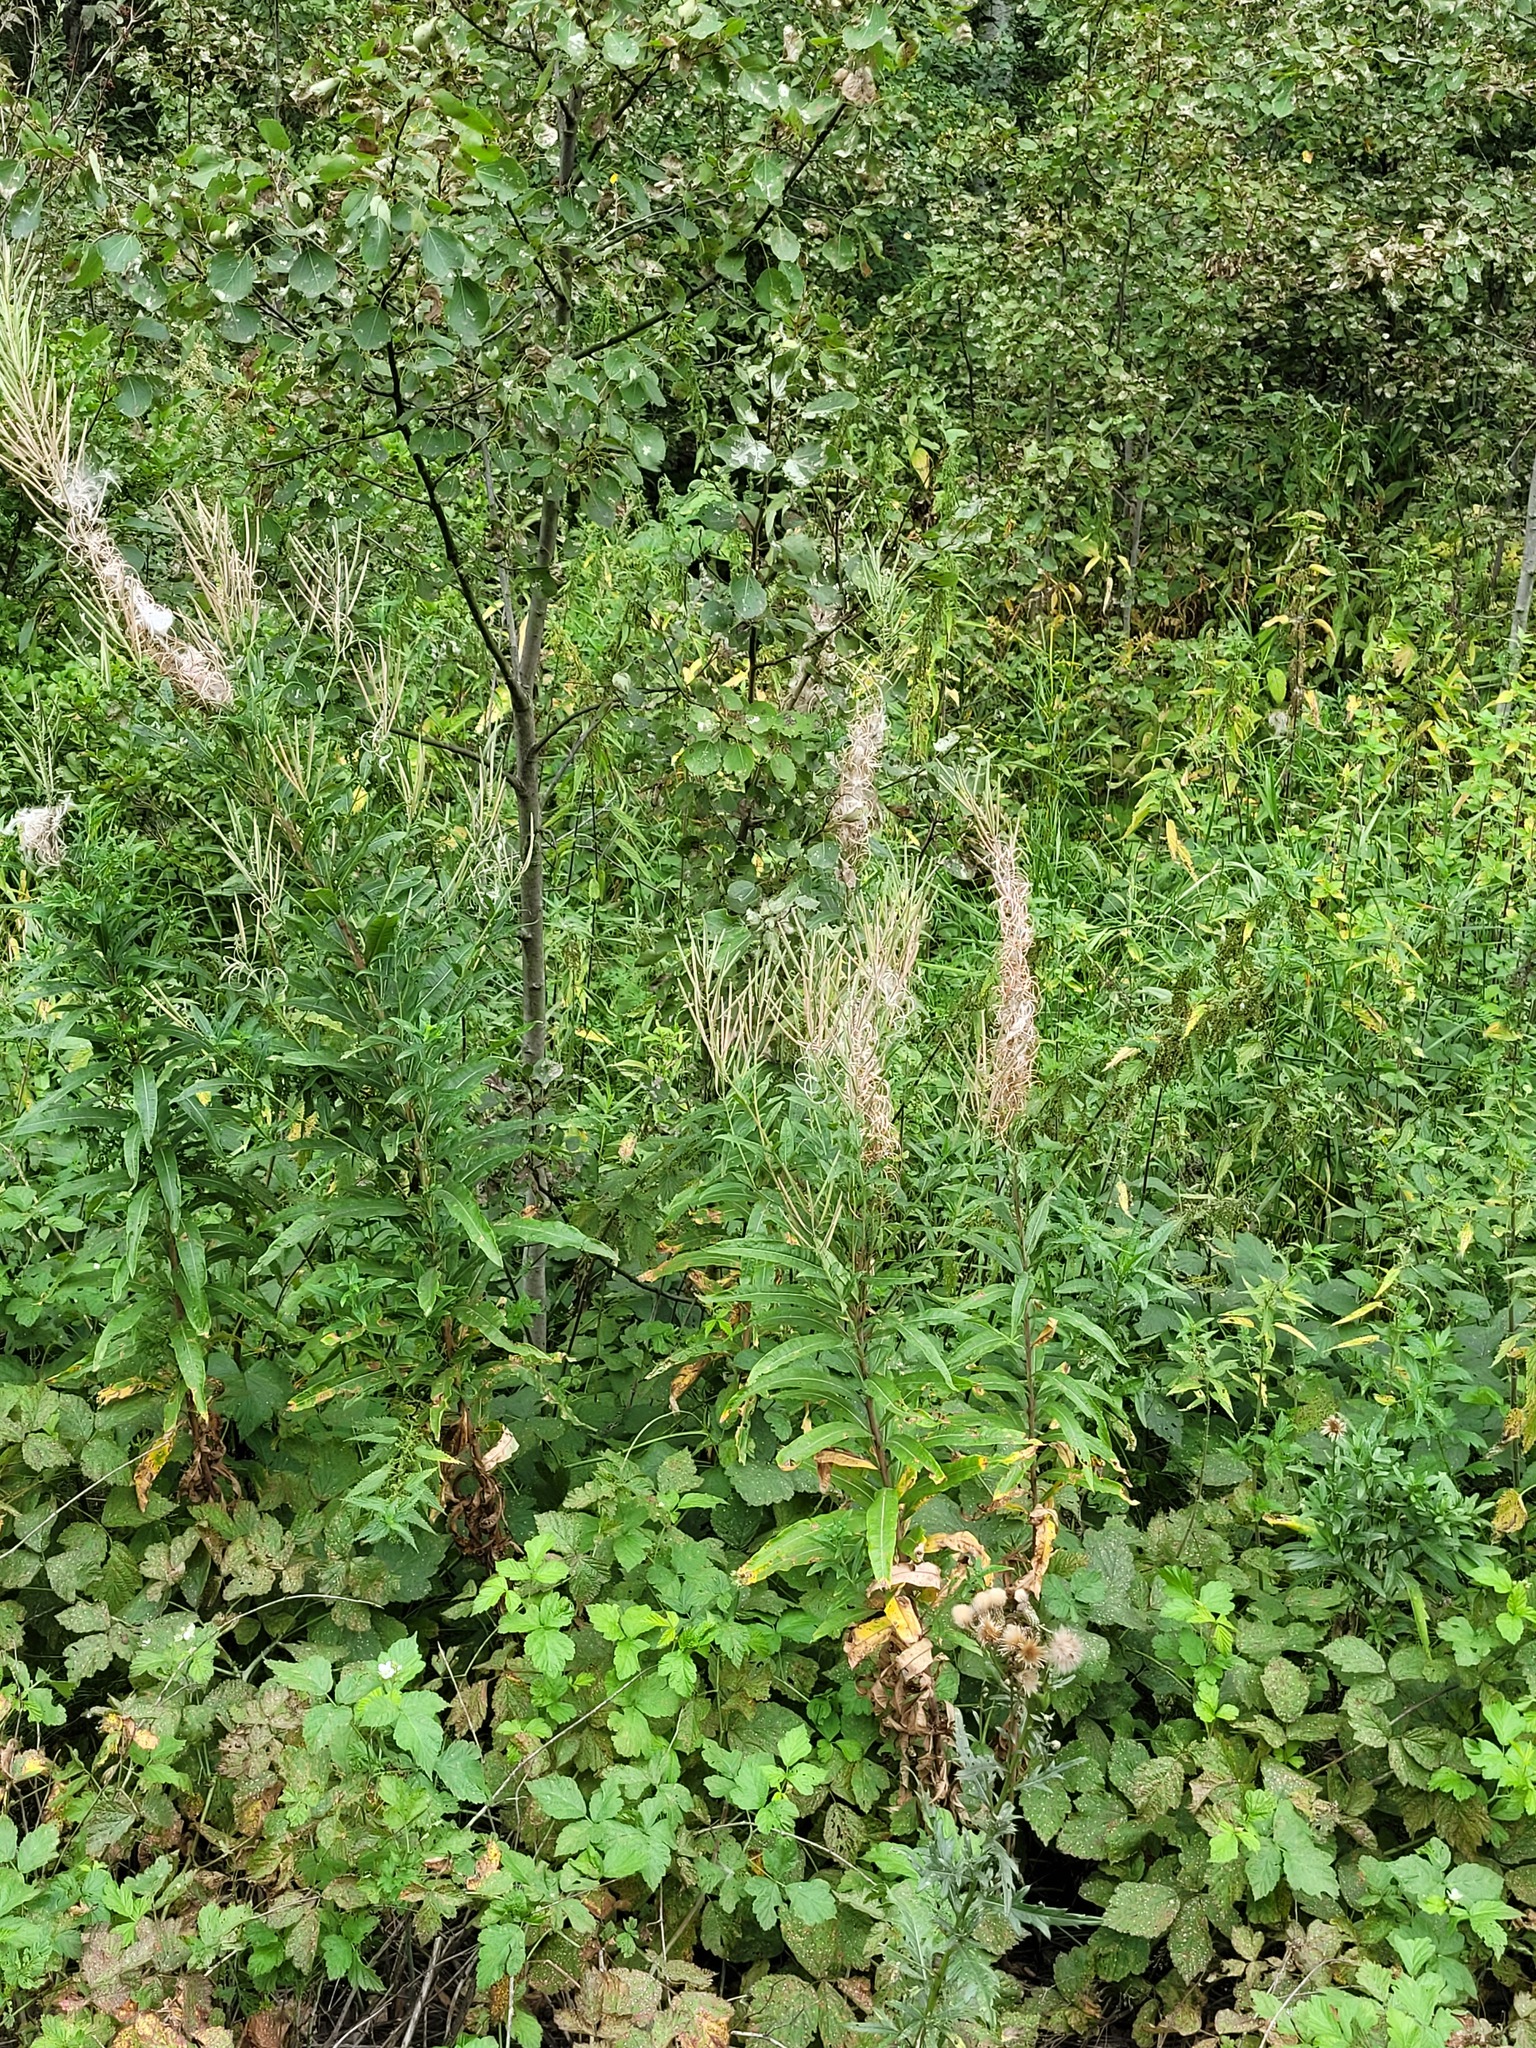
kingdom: Plantae
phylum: Tracheophyta
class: Magnoliopsida
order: Myrtales
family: Onagraceae
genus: Chamaenerion
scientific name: Chamaenerion angustifolium
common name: Fireweed
